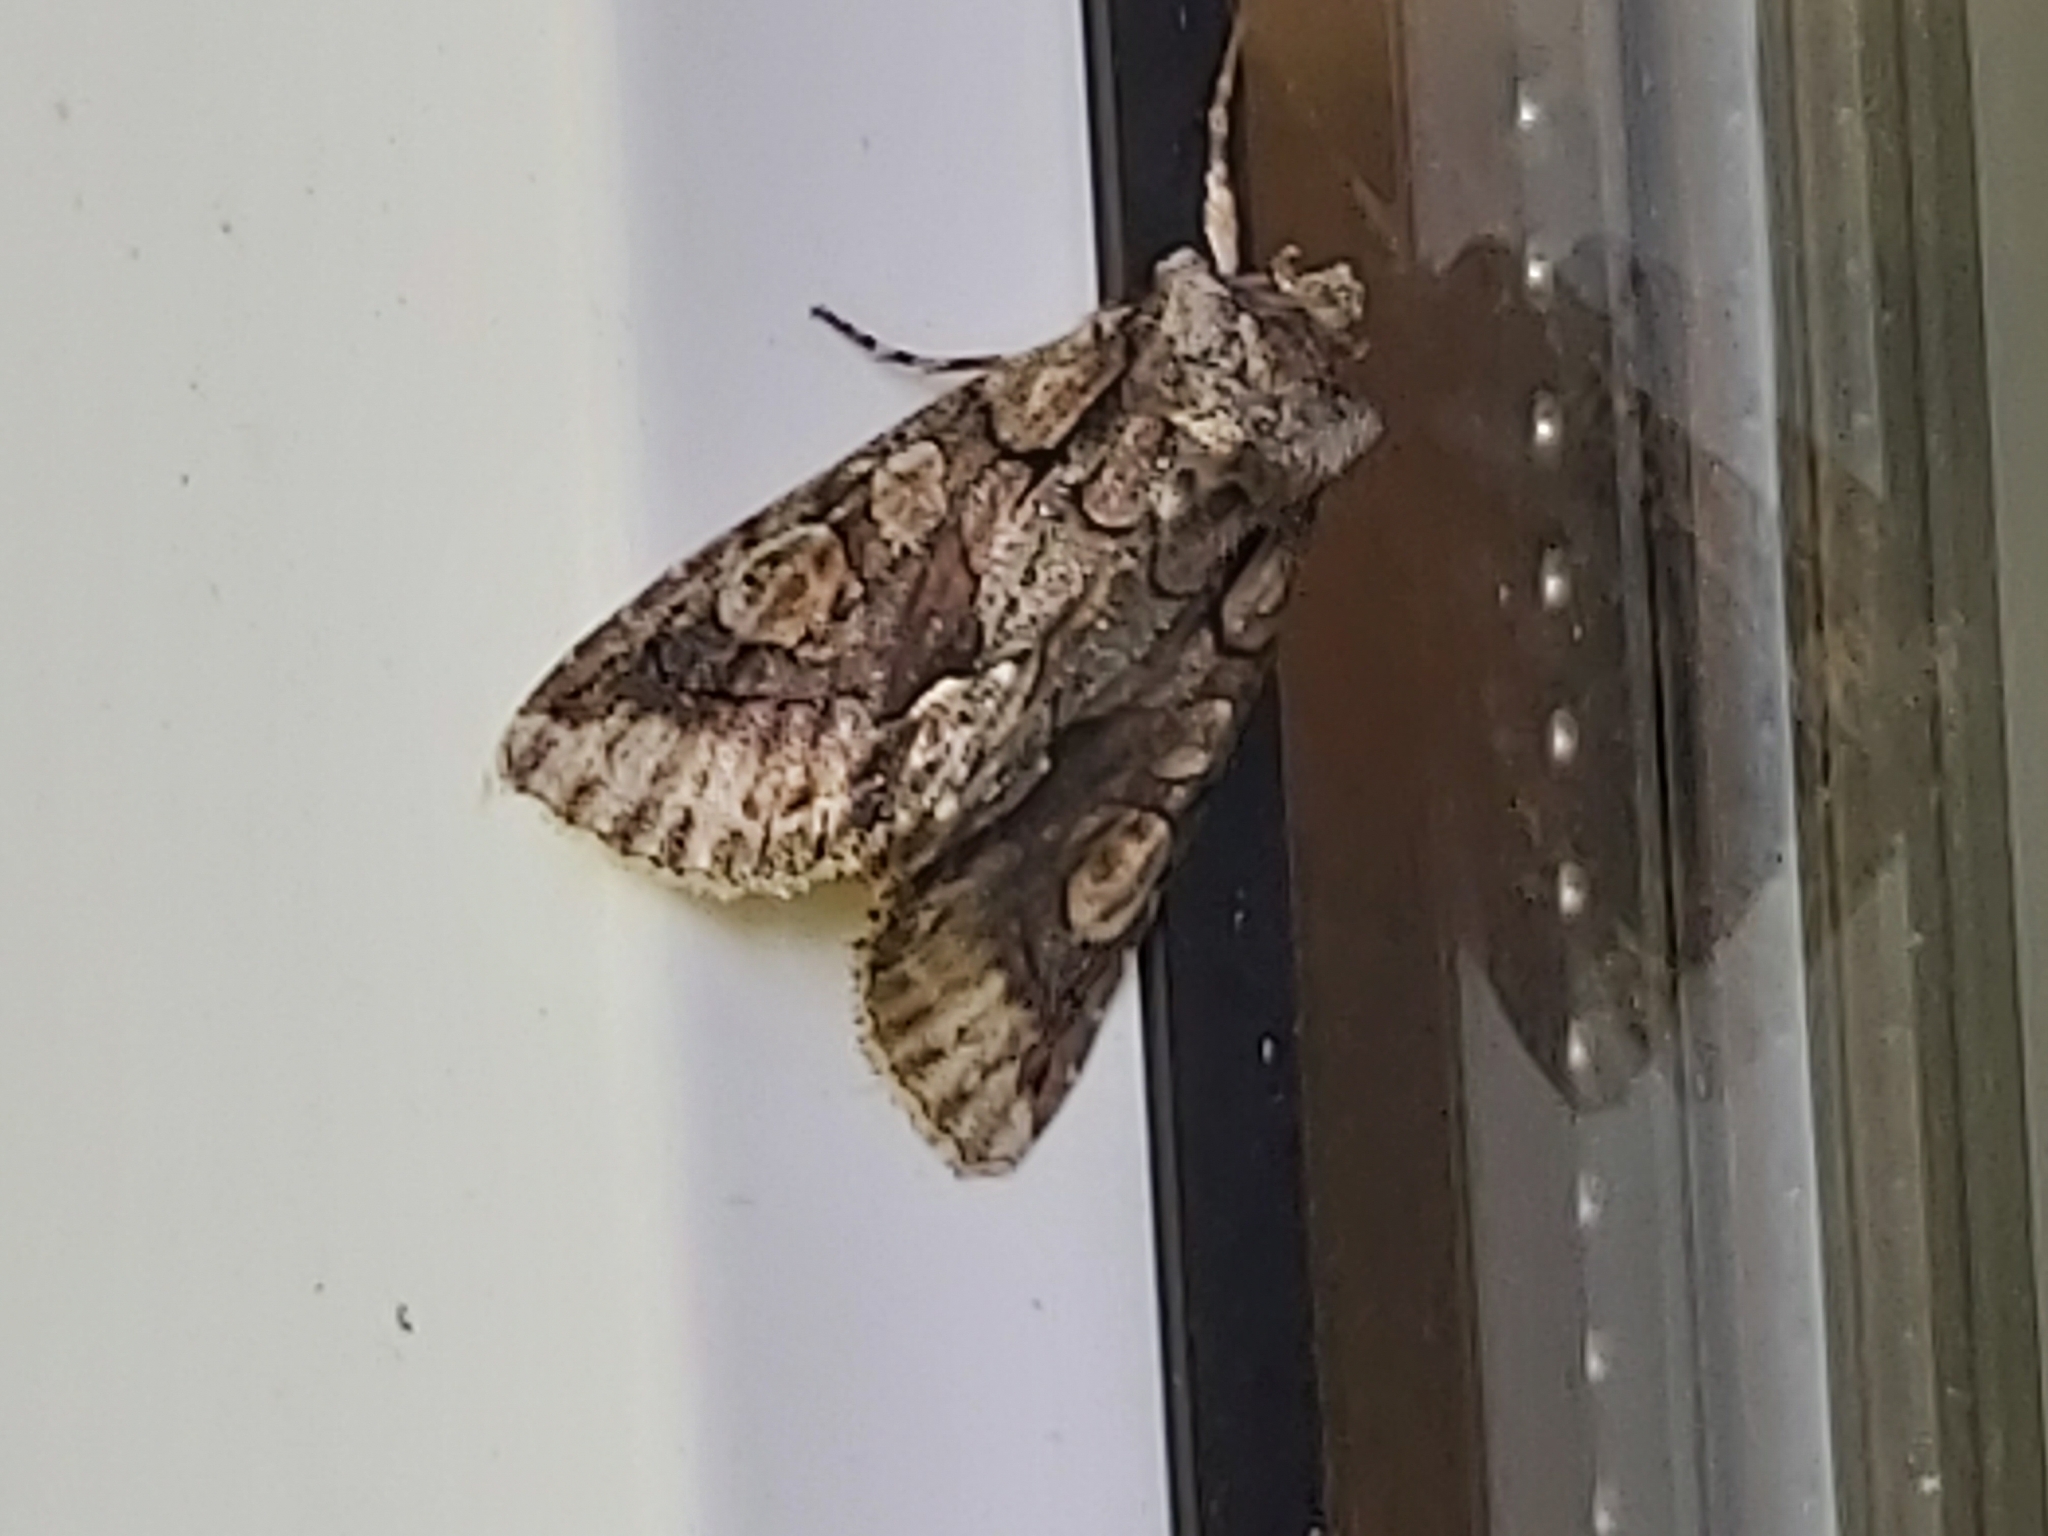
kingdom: Animalia
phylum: Arthropoda
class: Insecta
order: Lepidoptera
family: Noctuidae
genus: Allophyes
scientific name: Allophyes oxyacanthae
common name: Green-brindled crescent
